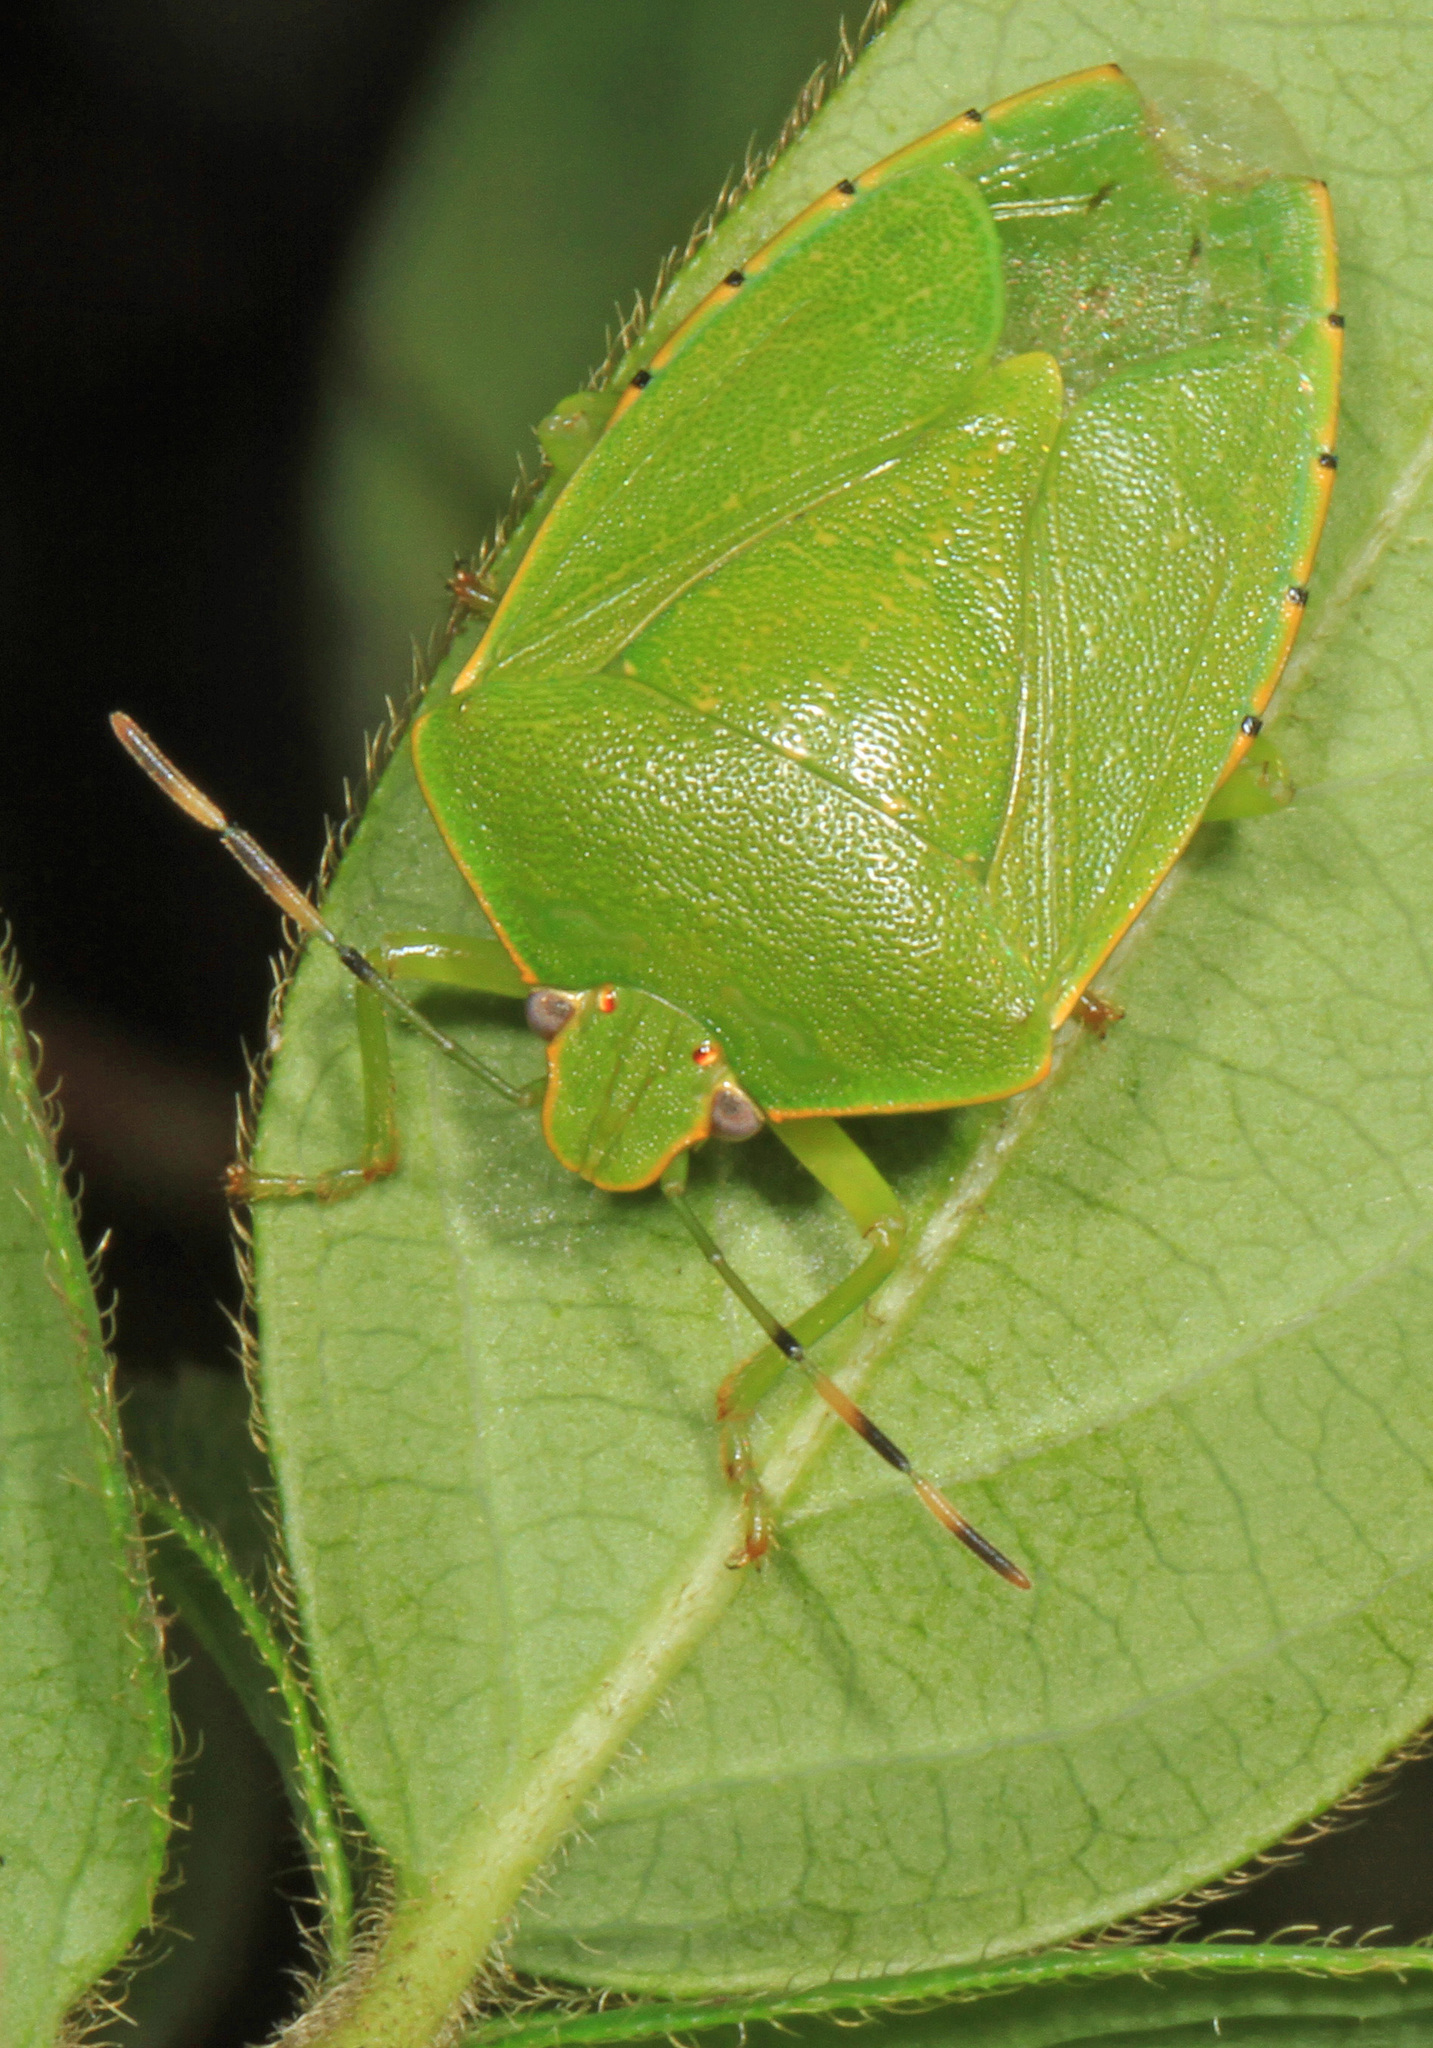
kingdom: Animalia
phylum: Arthropoda
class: Insecta
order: Hemiptera
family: Pentatomidae
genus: Chinavia
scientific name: Chinavia hilaris
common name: Green stink bug
